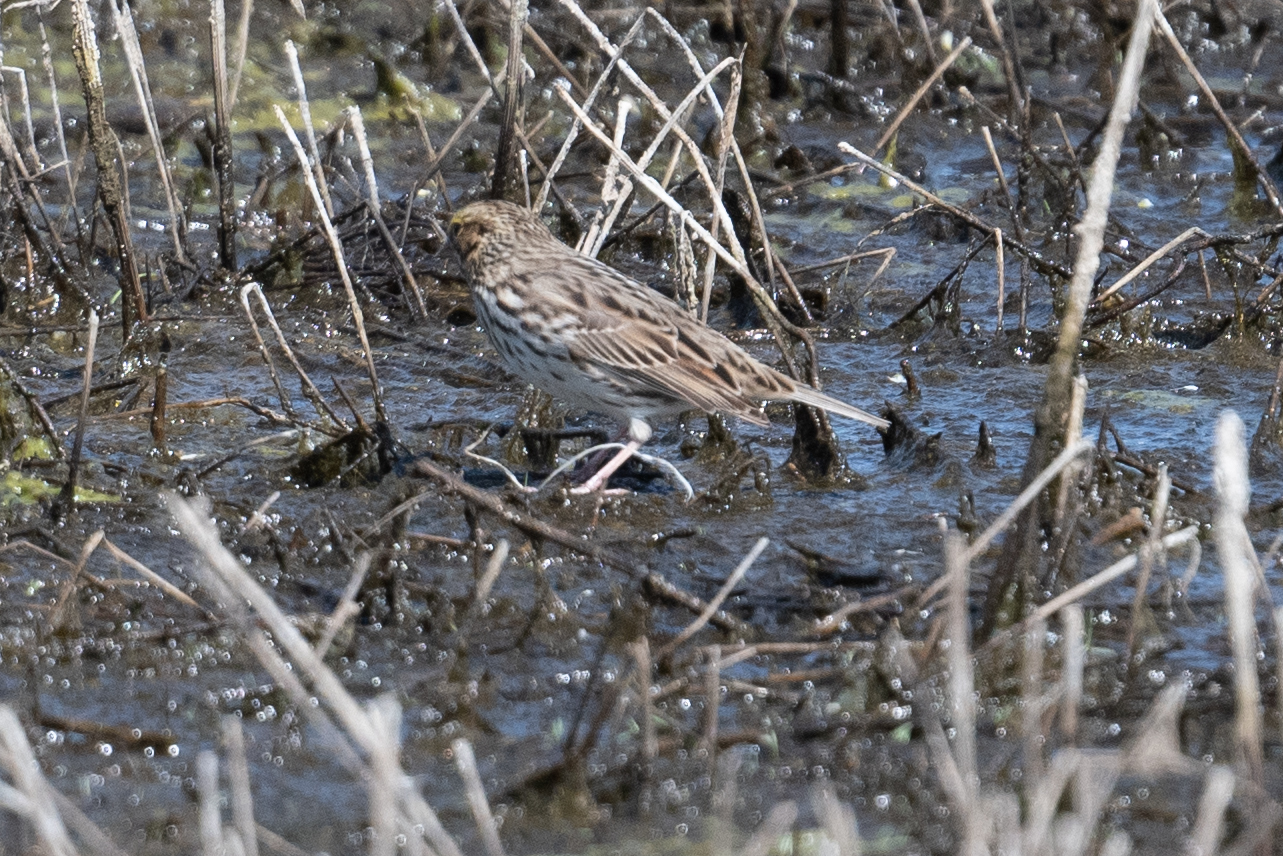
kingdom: Animalia
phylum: Chordata
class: Aves
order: Passeriformes
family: Passerellidae
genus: Passerculus
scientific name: Passerculus sandwichensis
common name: Savannah sparrow
